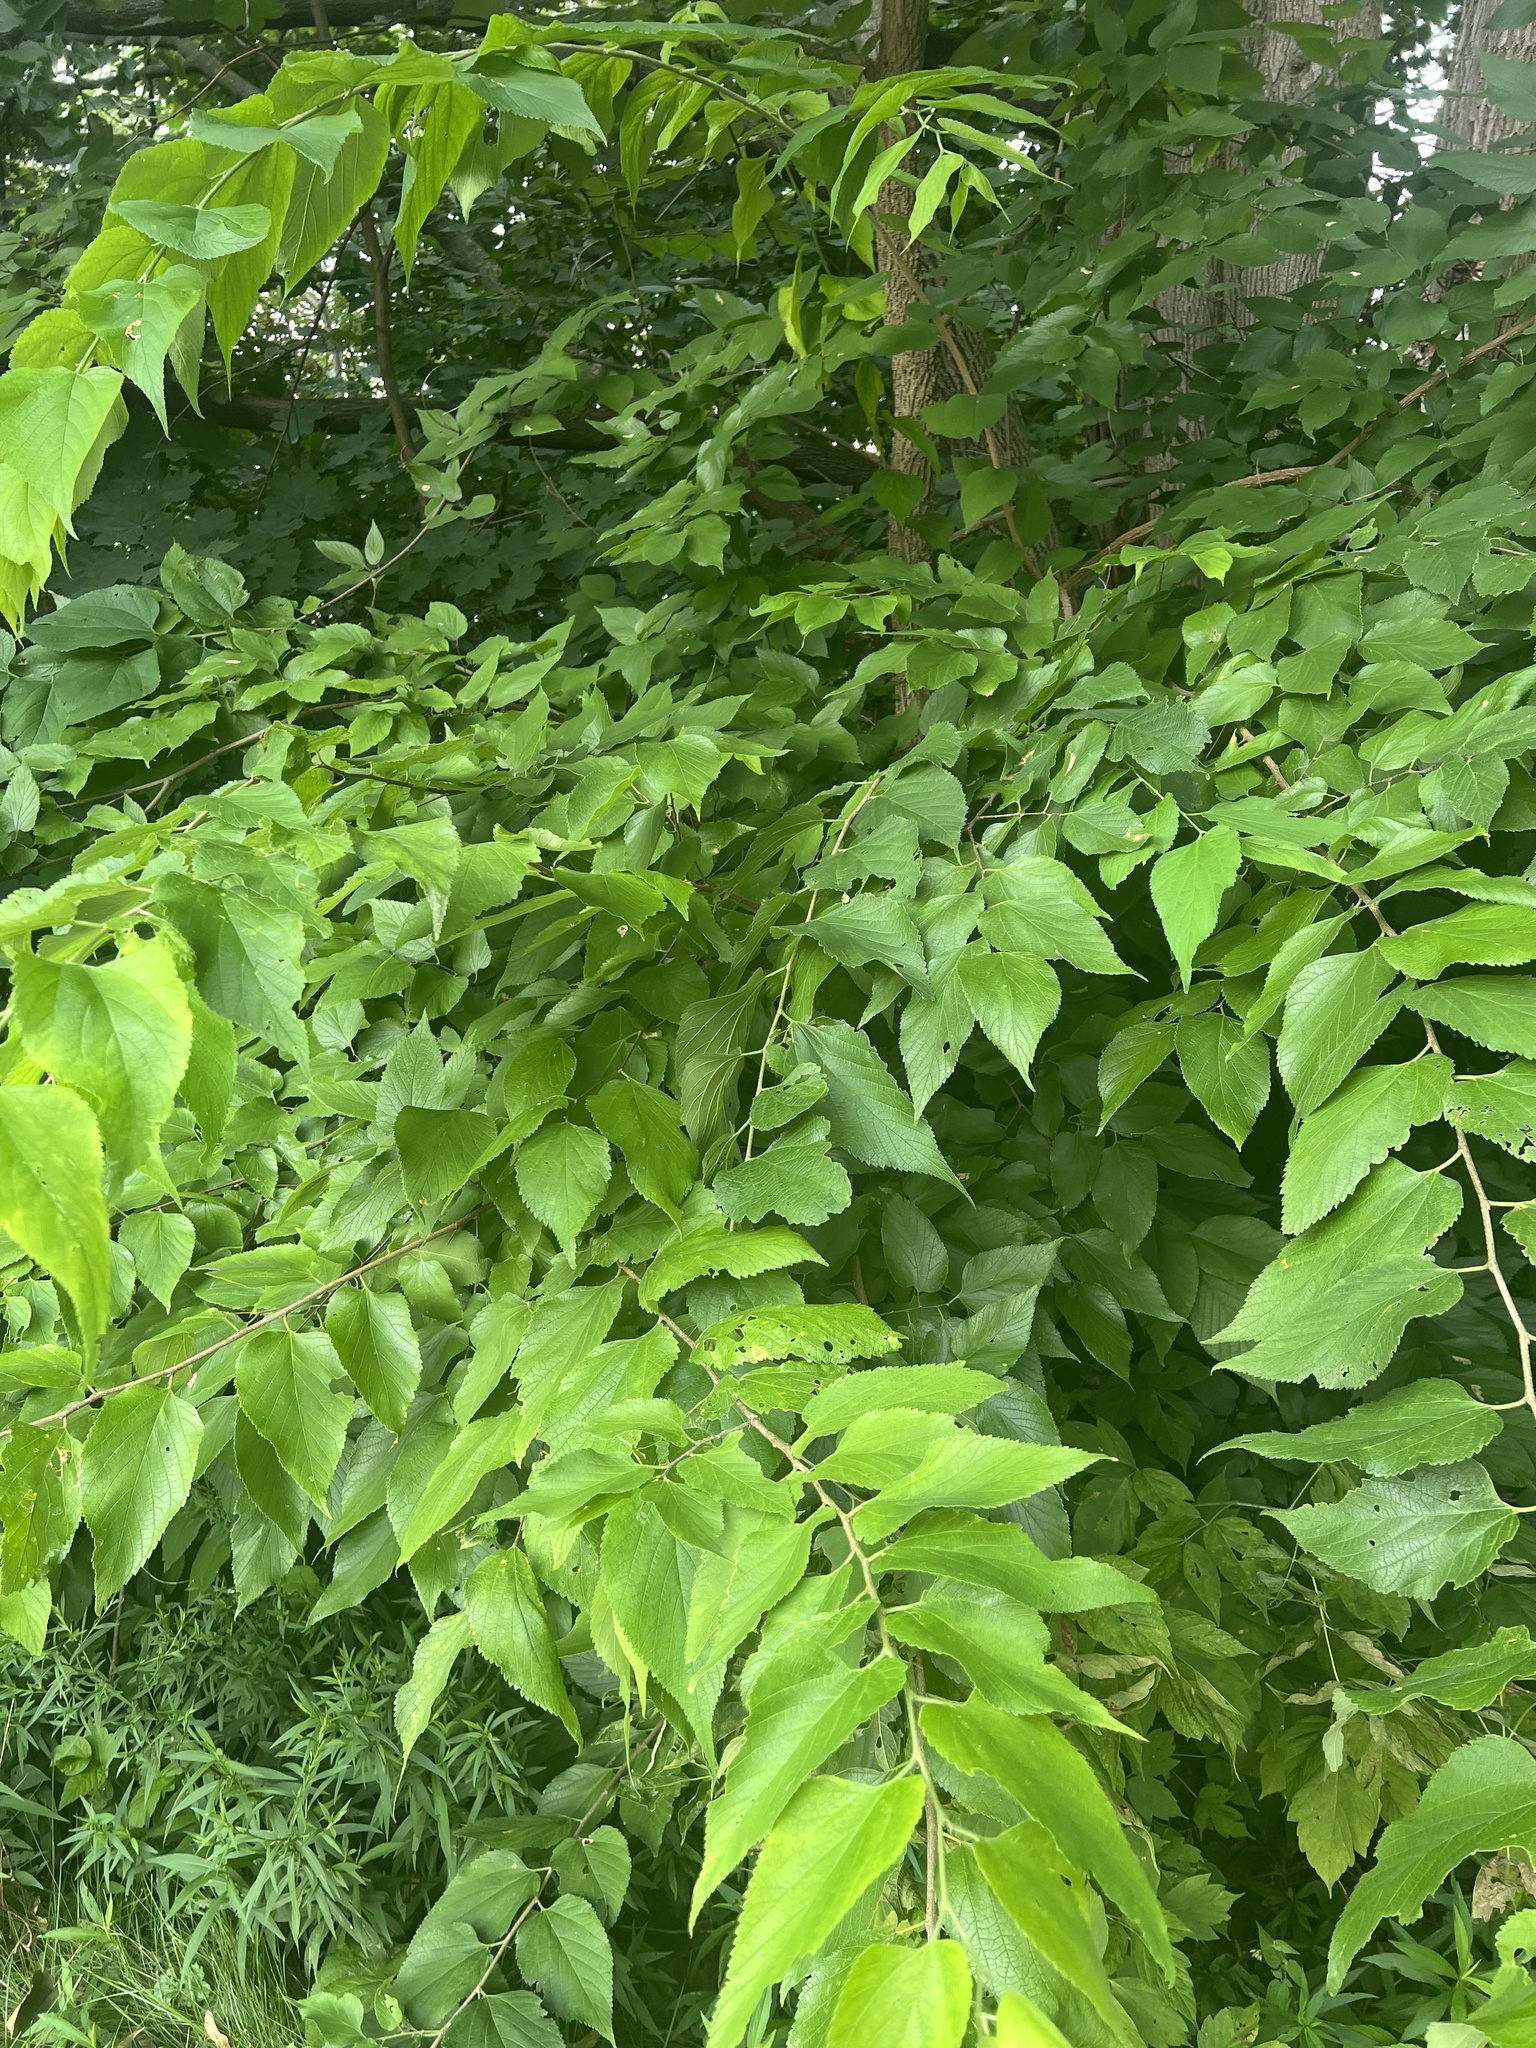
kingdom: Plantae
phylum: Tracheophyta
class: Magnoliopsida
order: Rosales
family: Cannabaceae
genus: Celtis
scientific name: Celtis occidentalis
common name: Common hackberry
